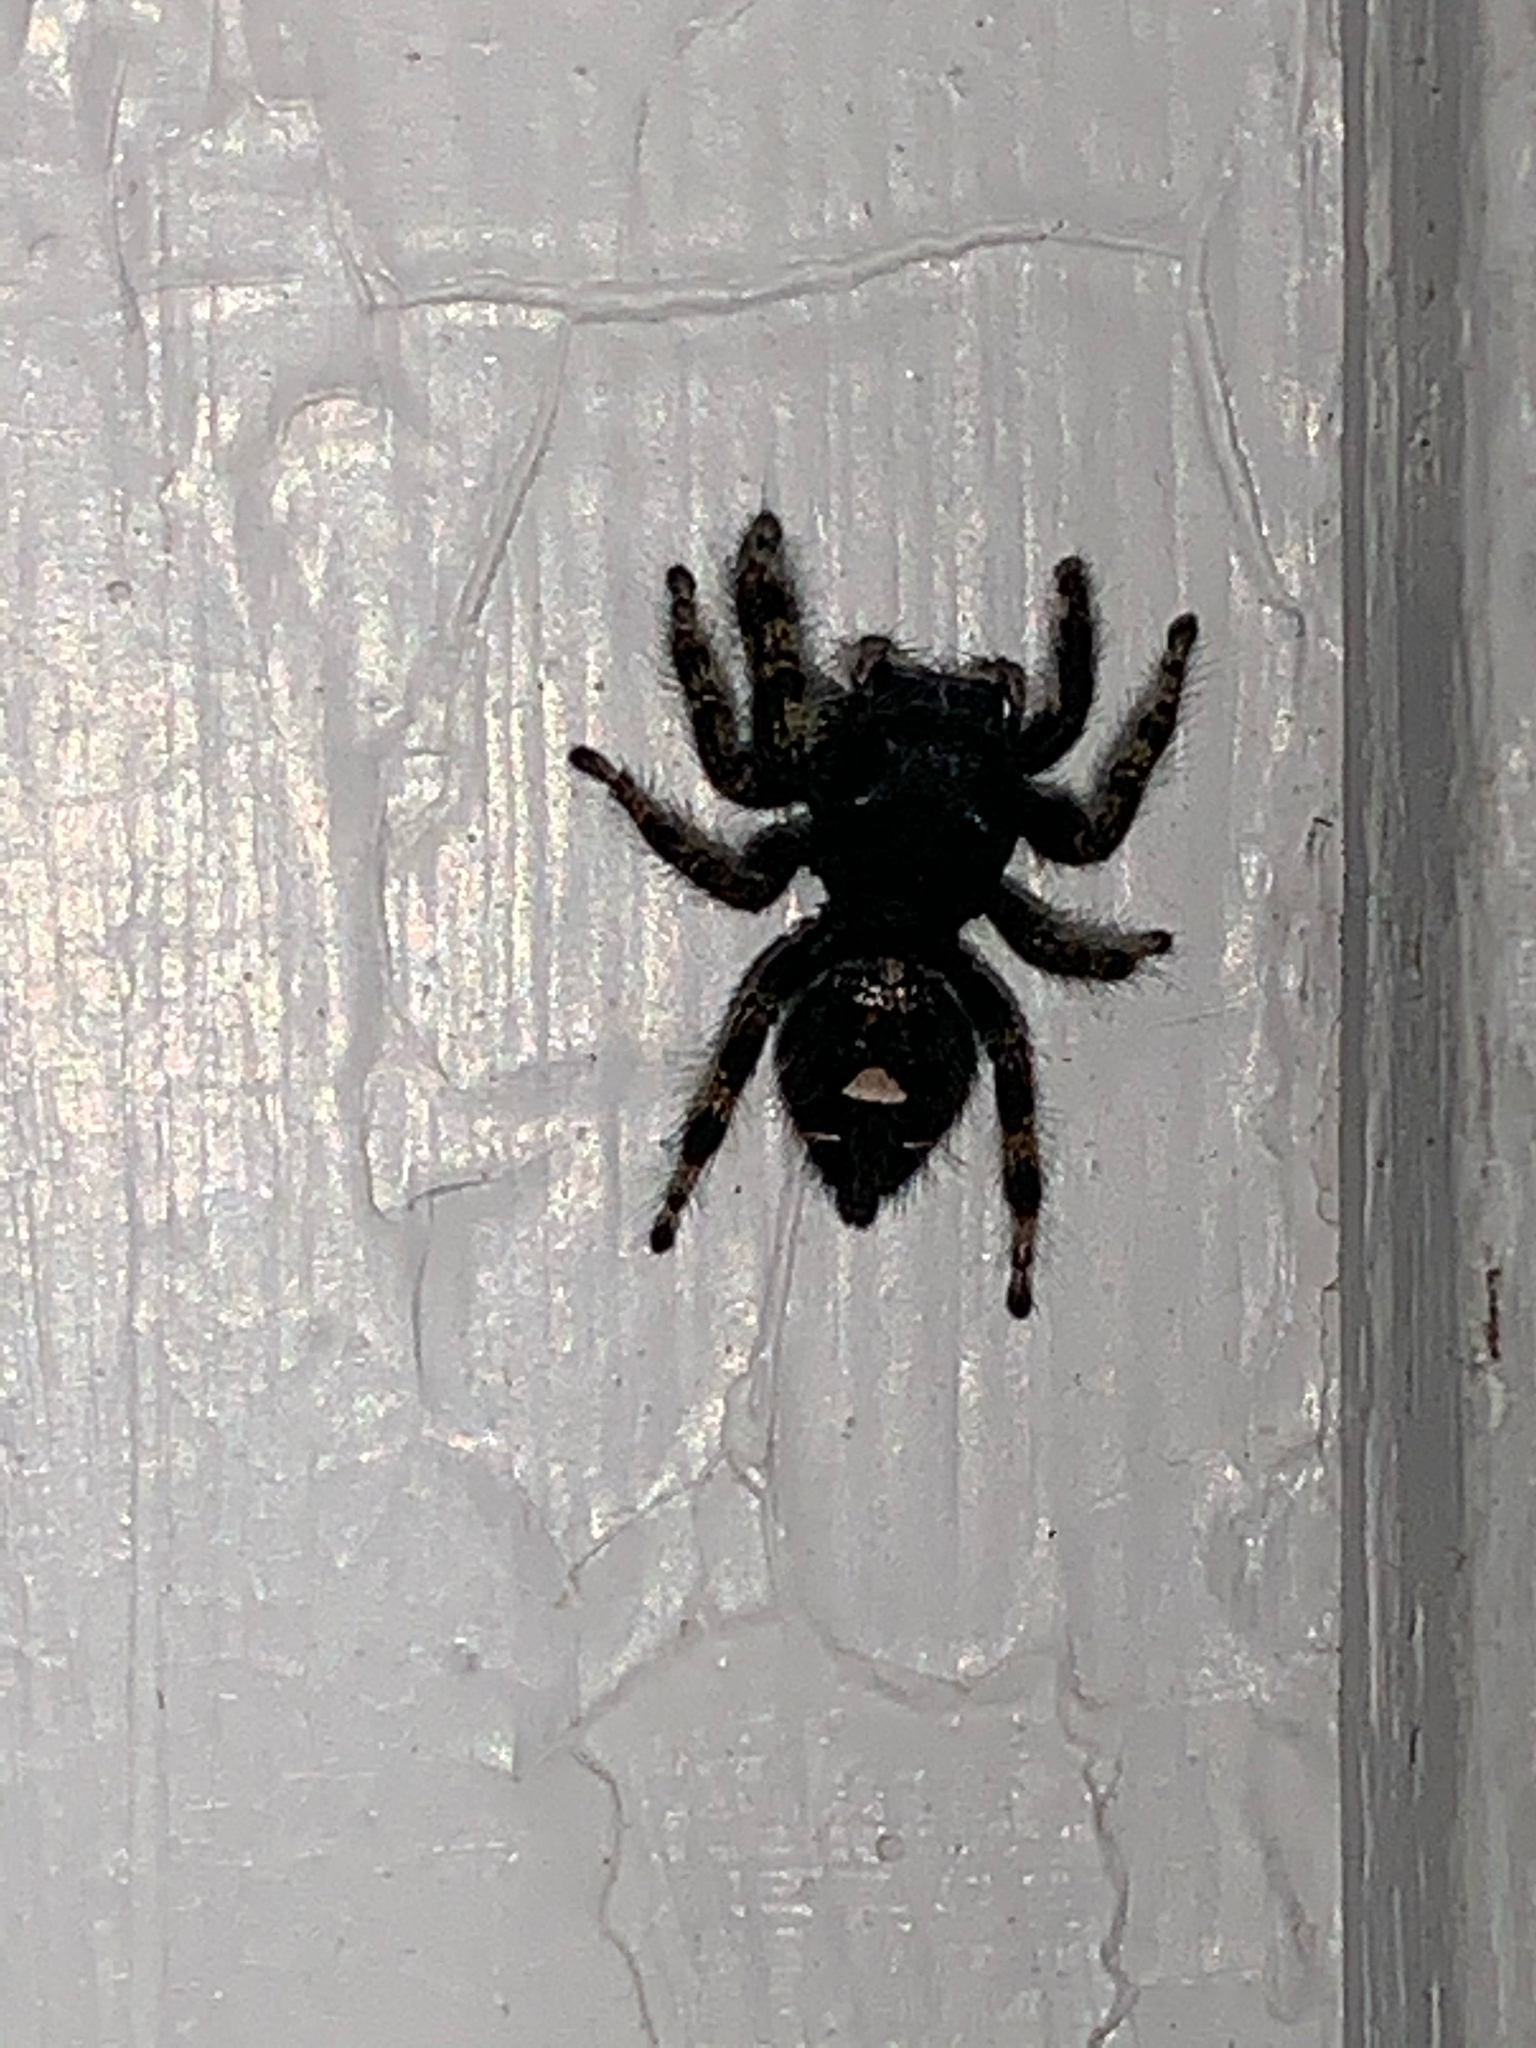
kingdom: Animalia
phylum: Arthropoda
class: Arachnida
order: Araneae
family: Salticidae
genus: Phidippus
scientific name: Phidippus audax
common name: Bold jumper
